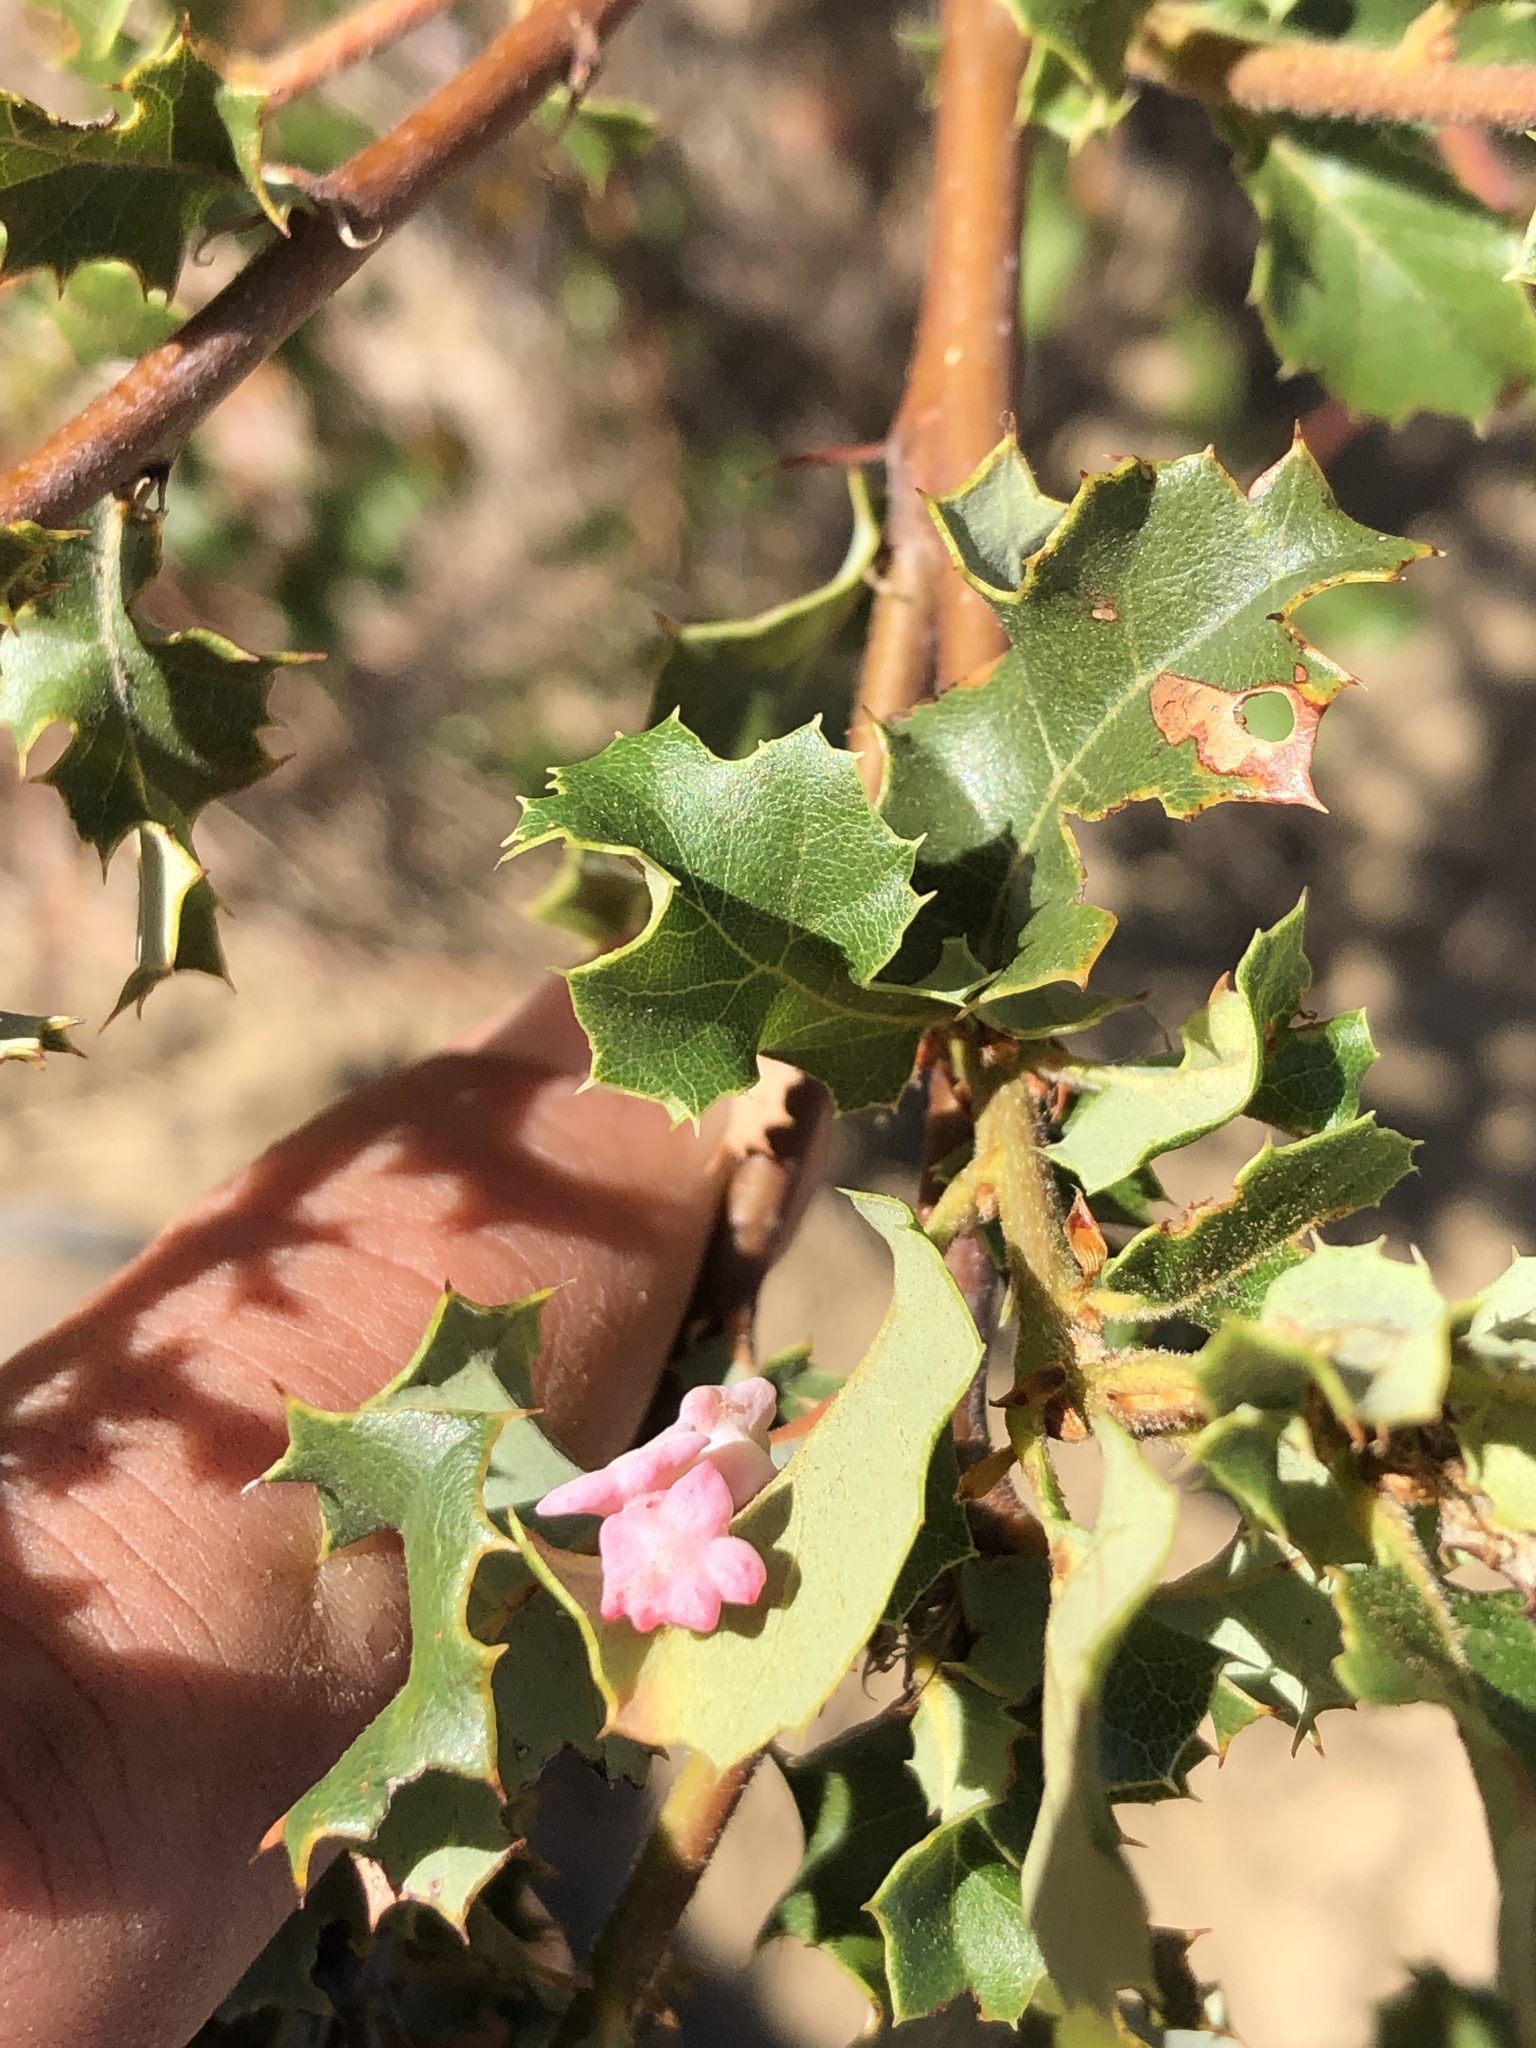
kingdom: Animalia
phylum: Arthropoda
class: Insecta
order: Hymenoptera
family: Cynipidae
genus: Cynips
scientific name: Cynips douglasi
